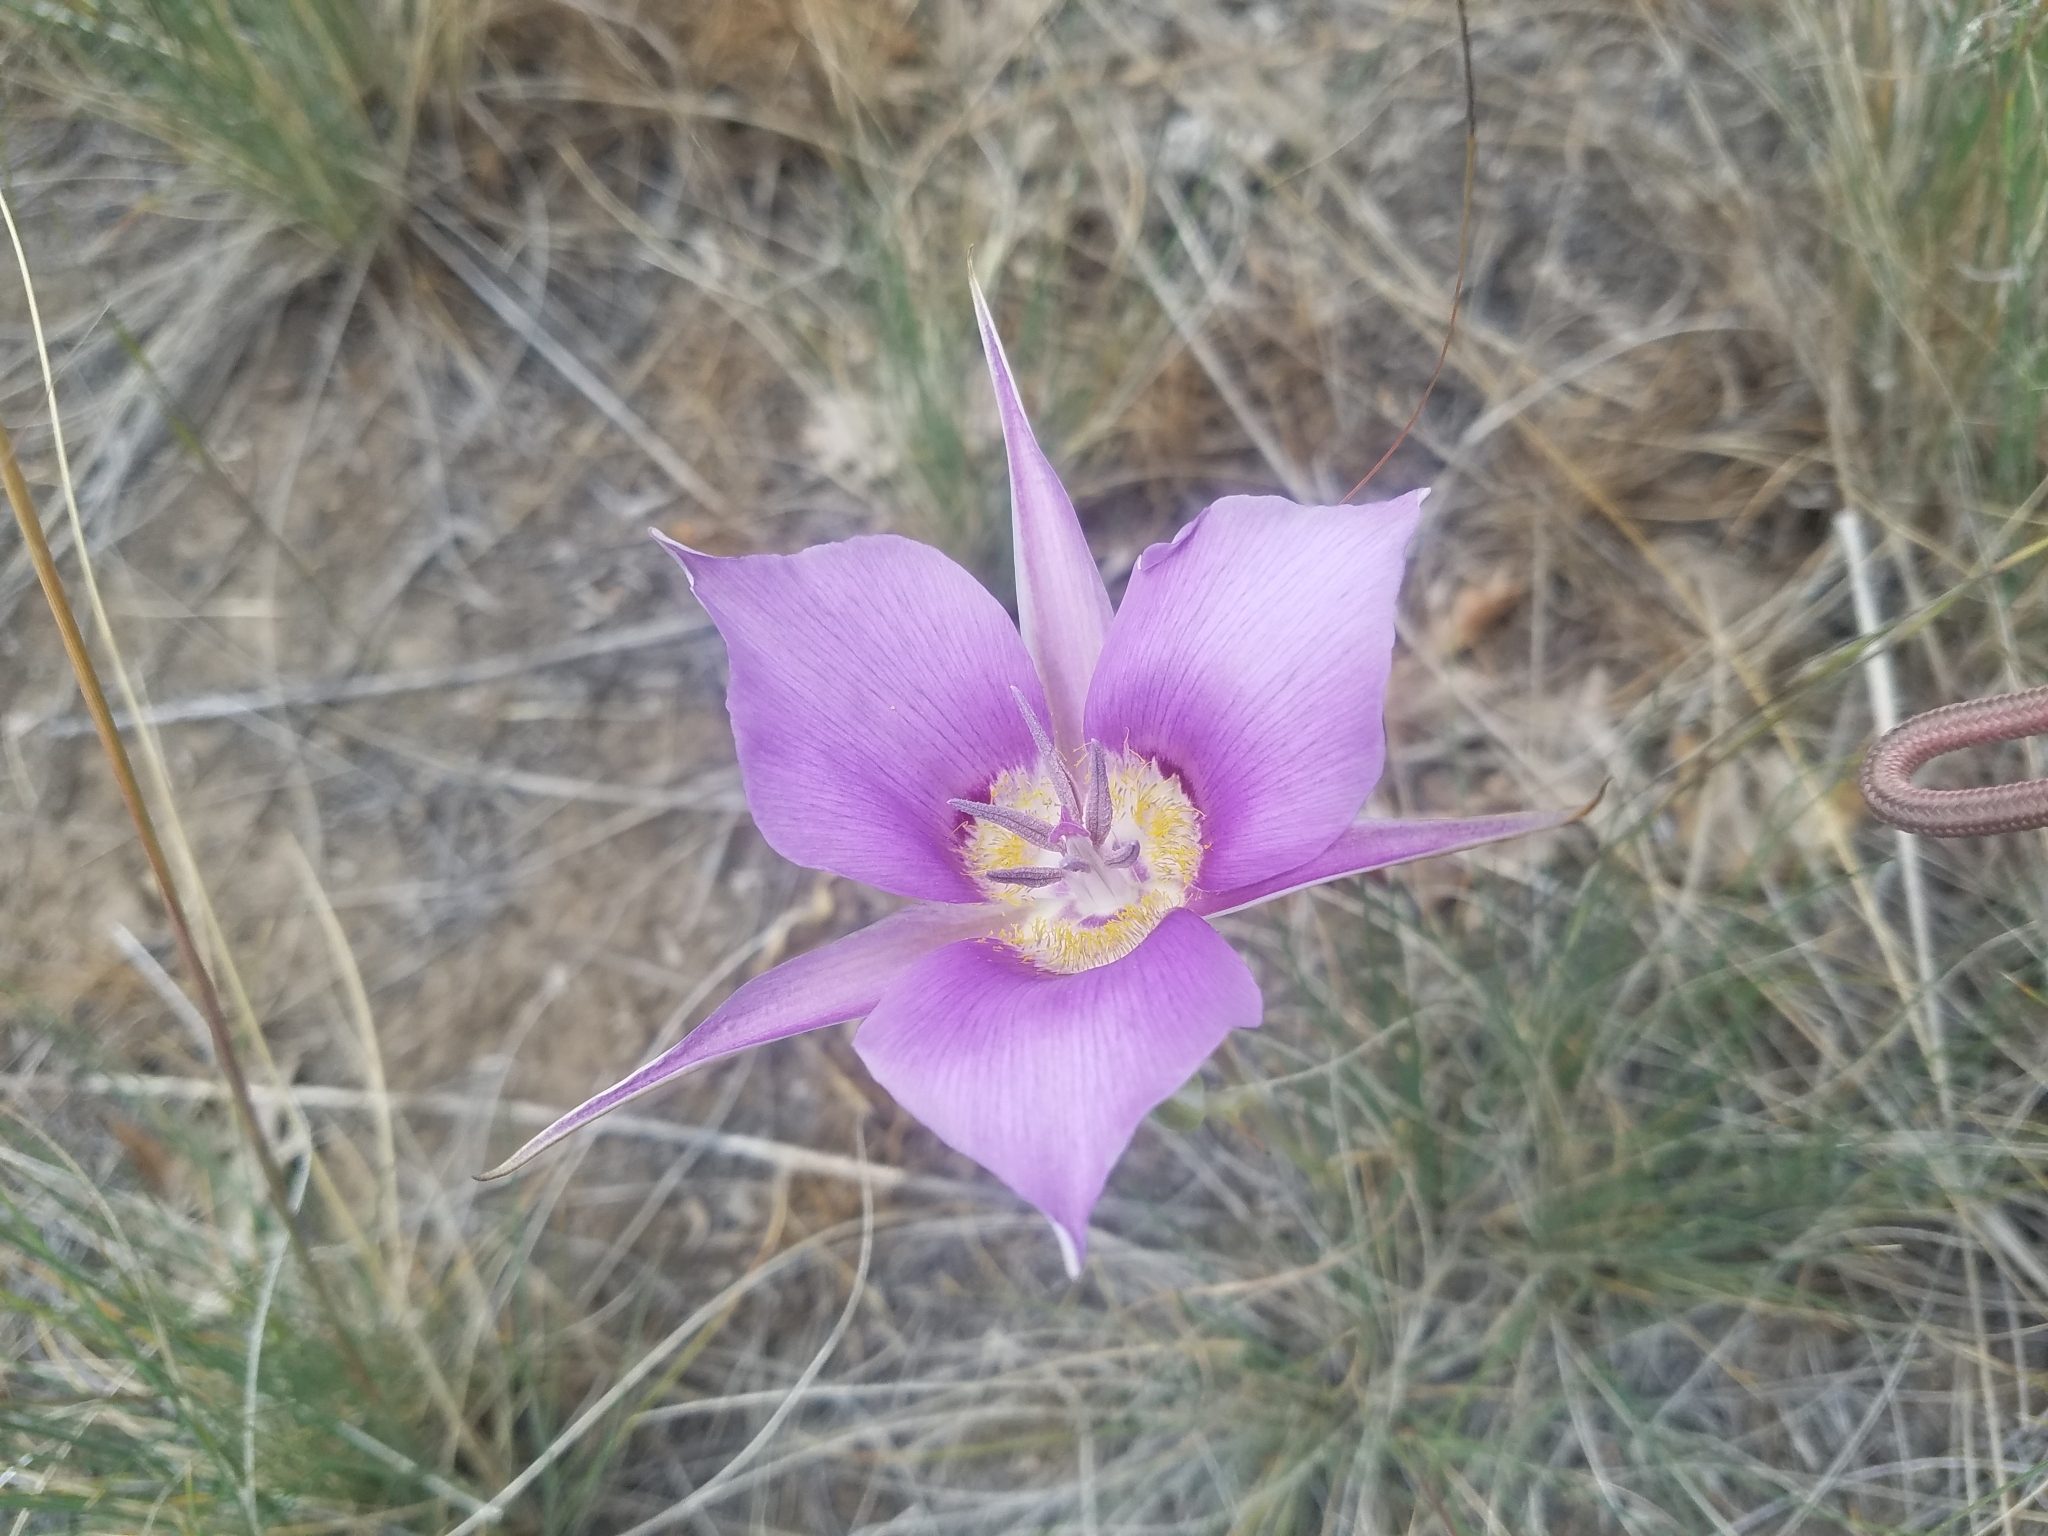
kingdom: Plantae
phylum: Tracheophyta
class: Liliopsida
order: Liliales
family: Liliaceae
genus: Calochortus
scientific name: Calochortus macrocarpus
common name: Green-band mariposa lily
